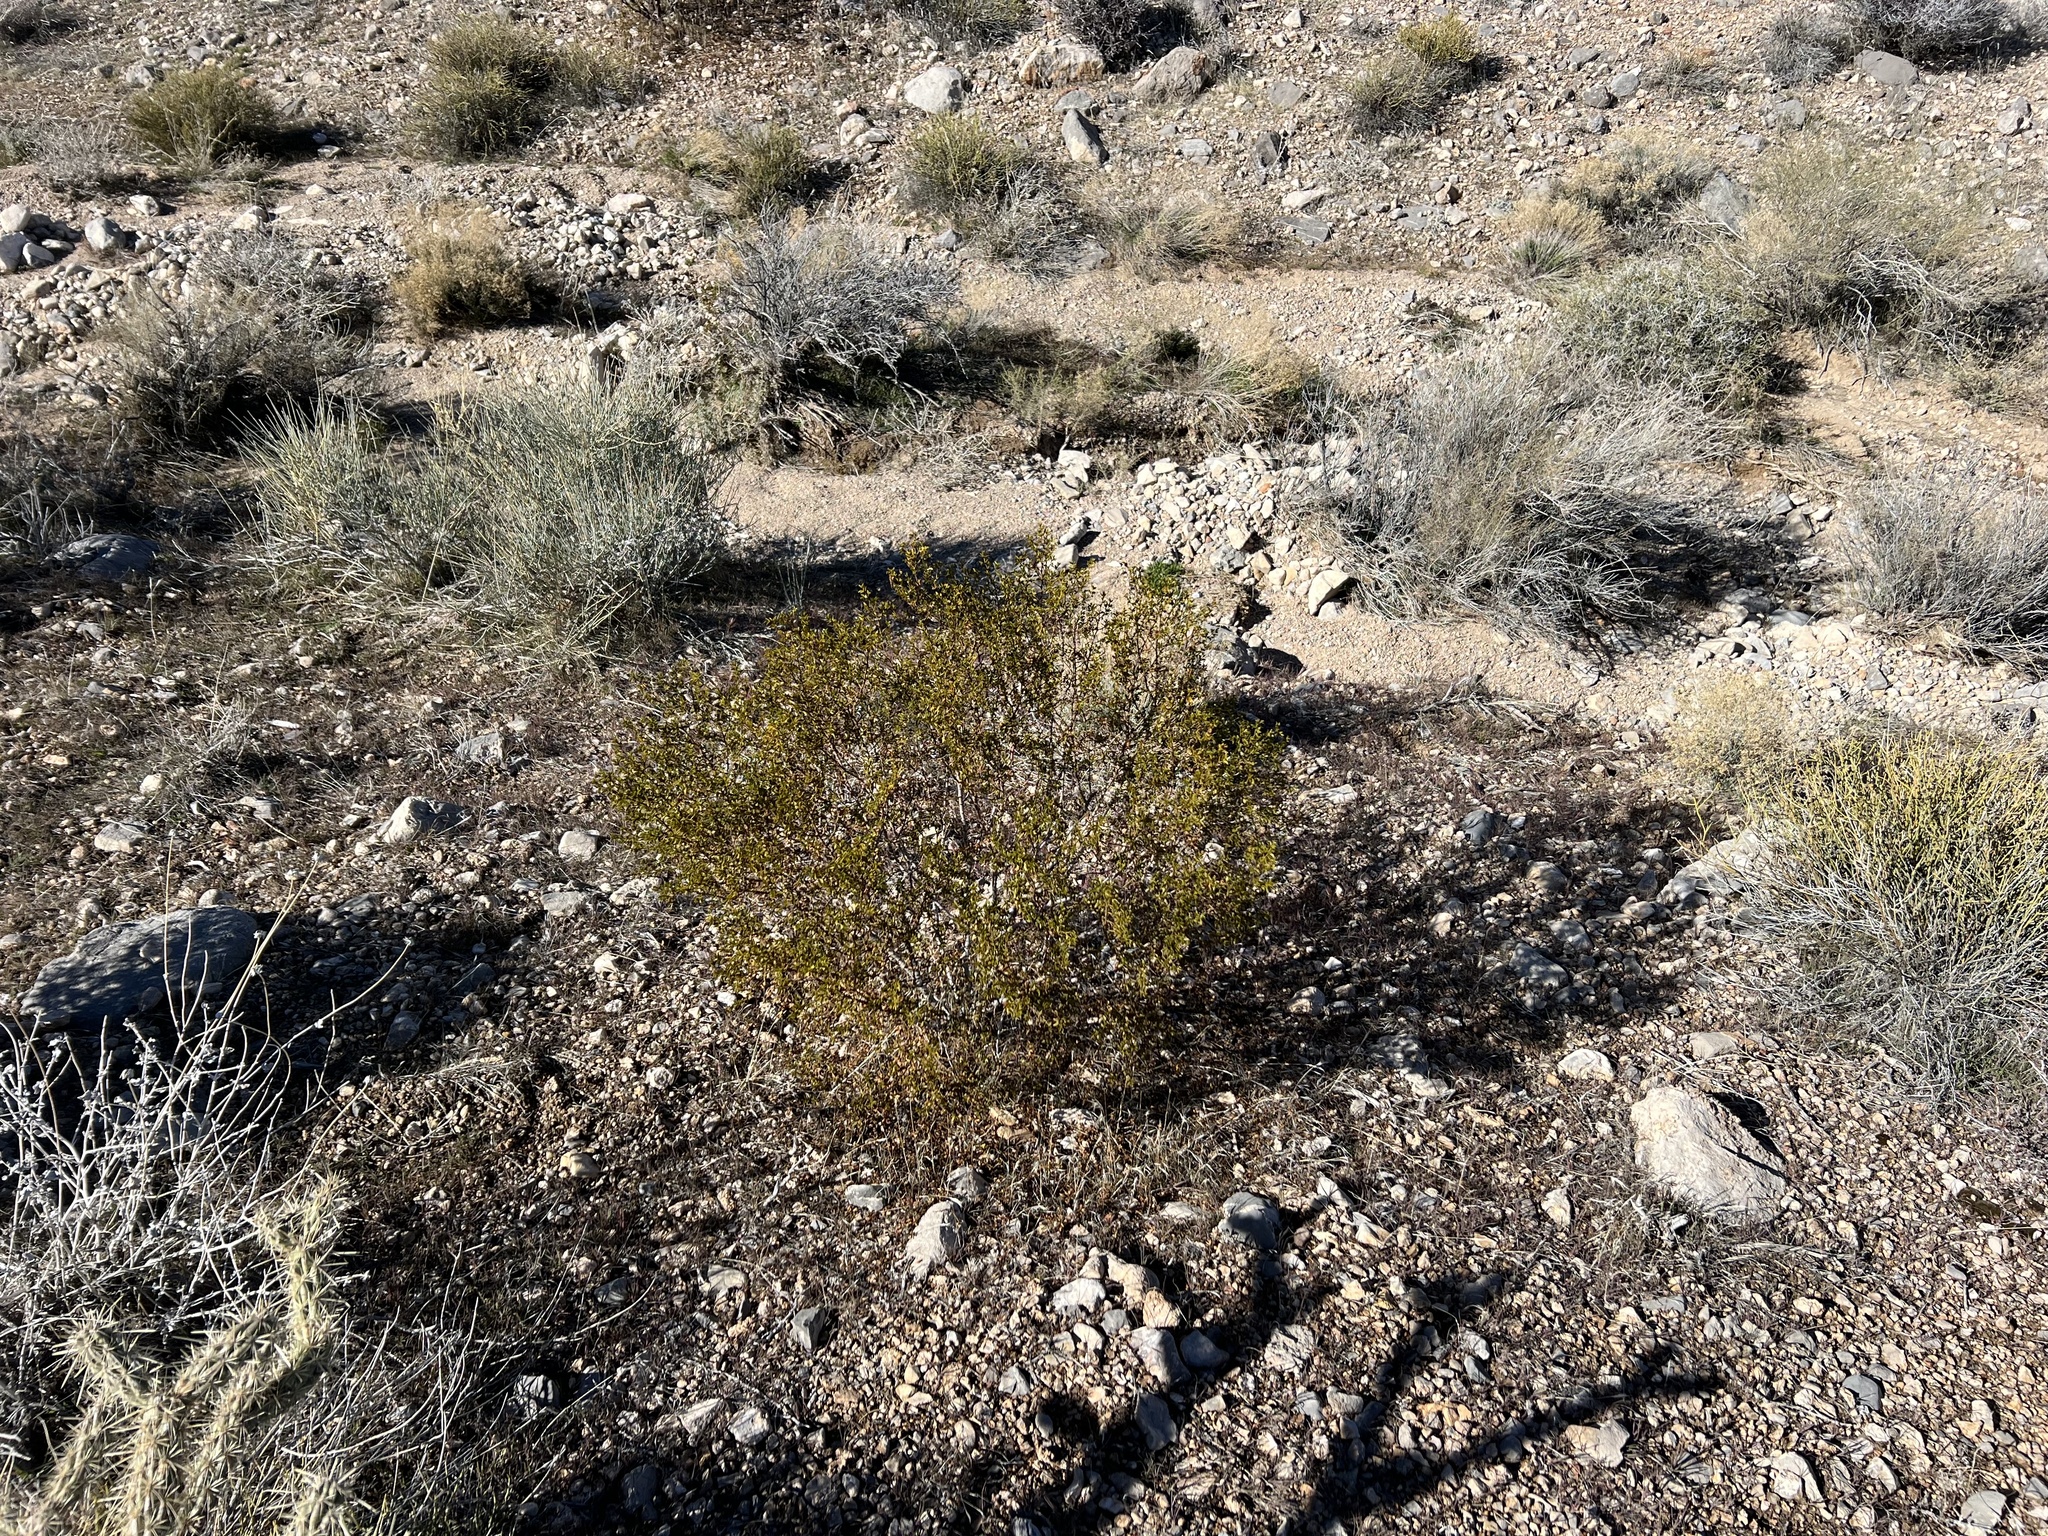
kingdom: Plantae
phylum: Tracheophyta
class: Magnoliopsida
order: Zygophyllales
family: Zygophyllaceae
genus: Larrea
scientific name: Larrea tridentata
